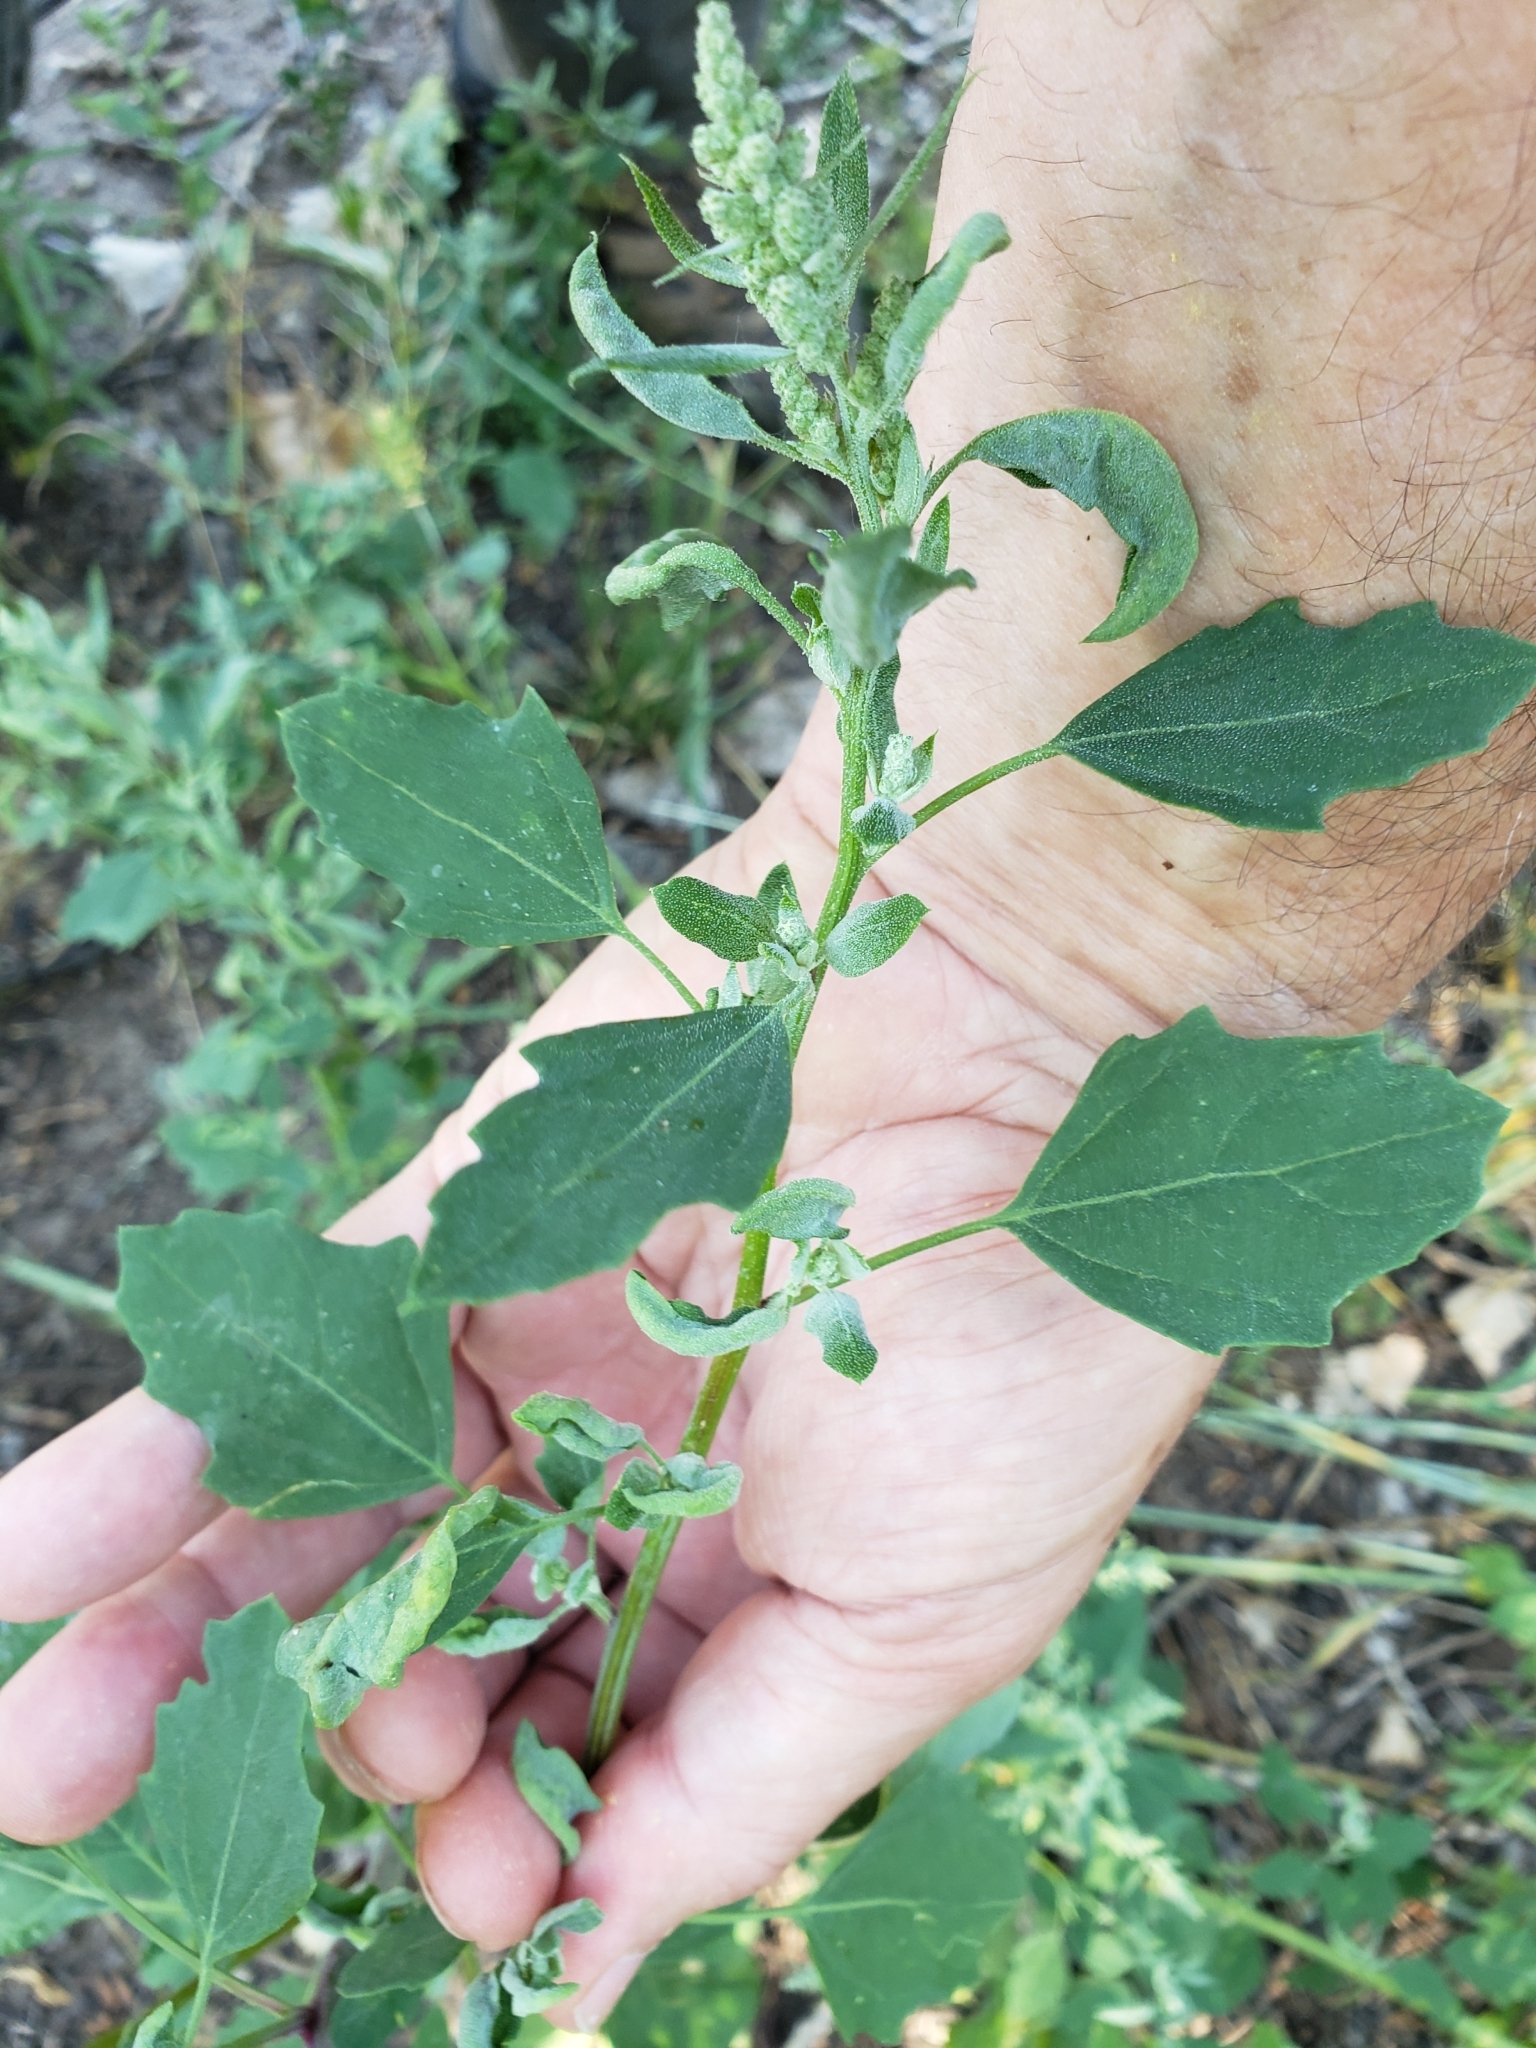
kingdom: Plantae
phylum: Tracheophyta
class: Magnoliopsida
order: Caryophyllales
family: Amaranthaceae
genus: Chenopodium
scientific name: Chenopodium album
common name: Fat-hen
